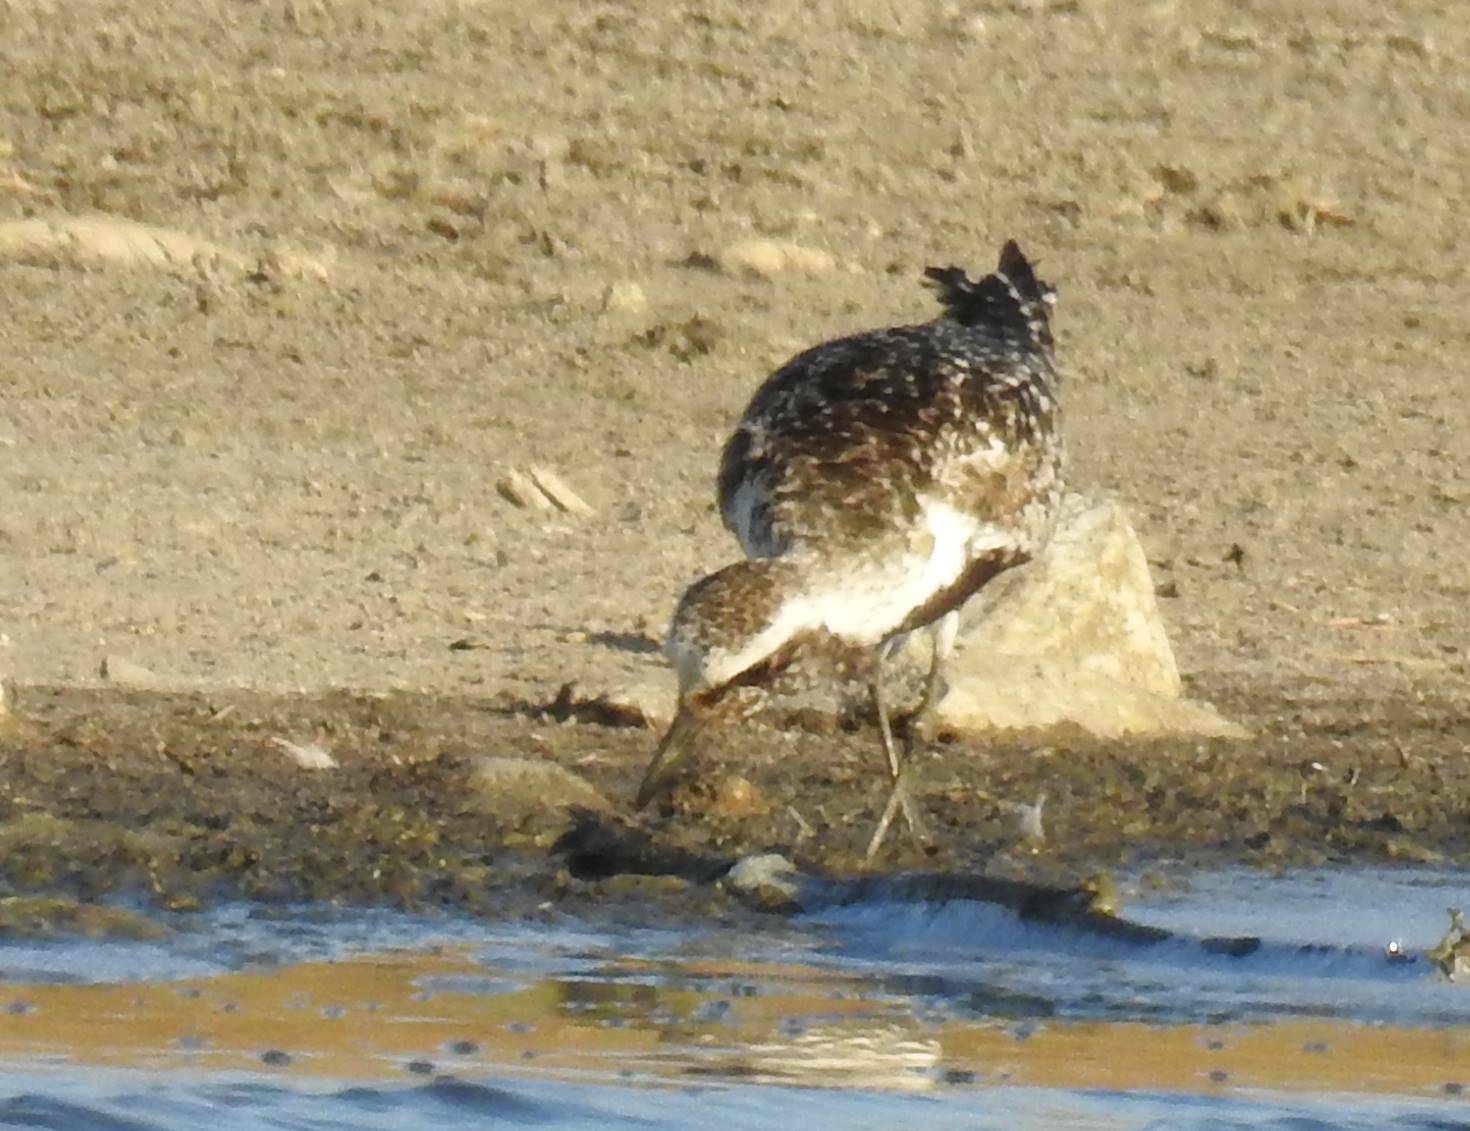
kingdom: Animalia
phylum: Chordata
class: Aves
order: Charadriiformes
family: Charadriidae
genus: Pluvialis
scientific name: Pluvialis squatarola
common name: Grey plover
